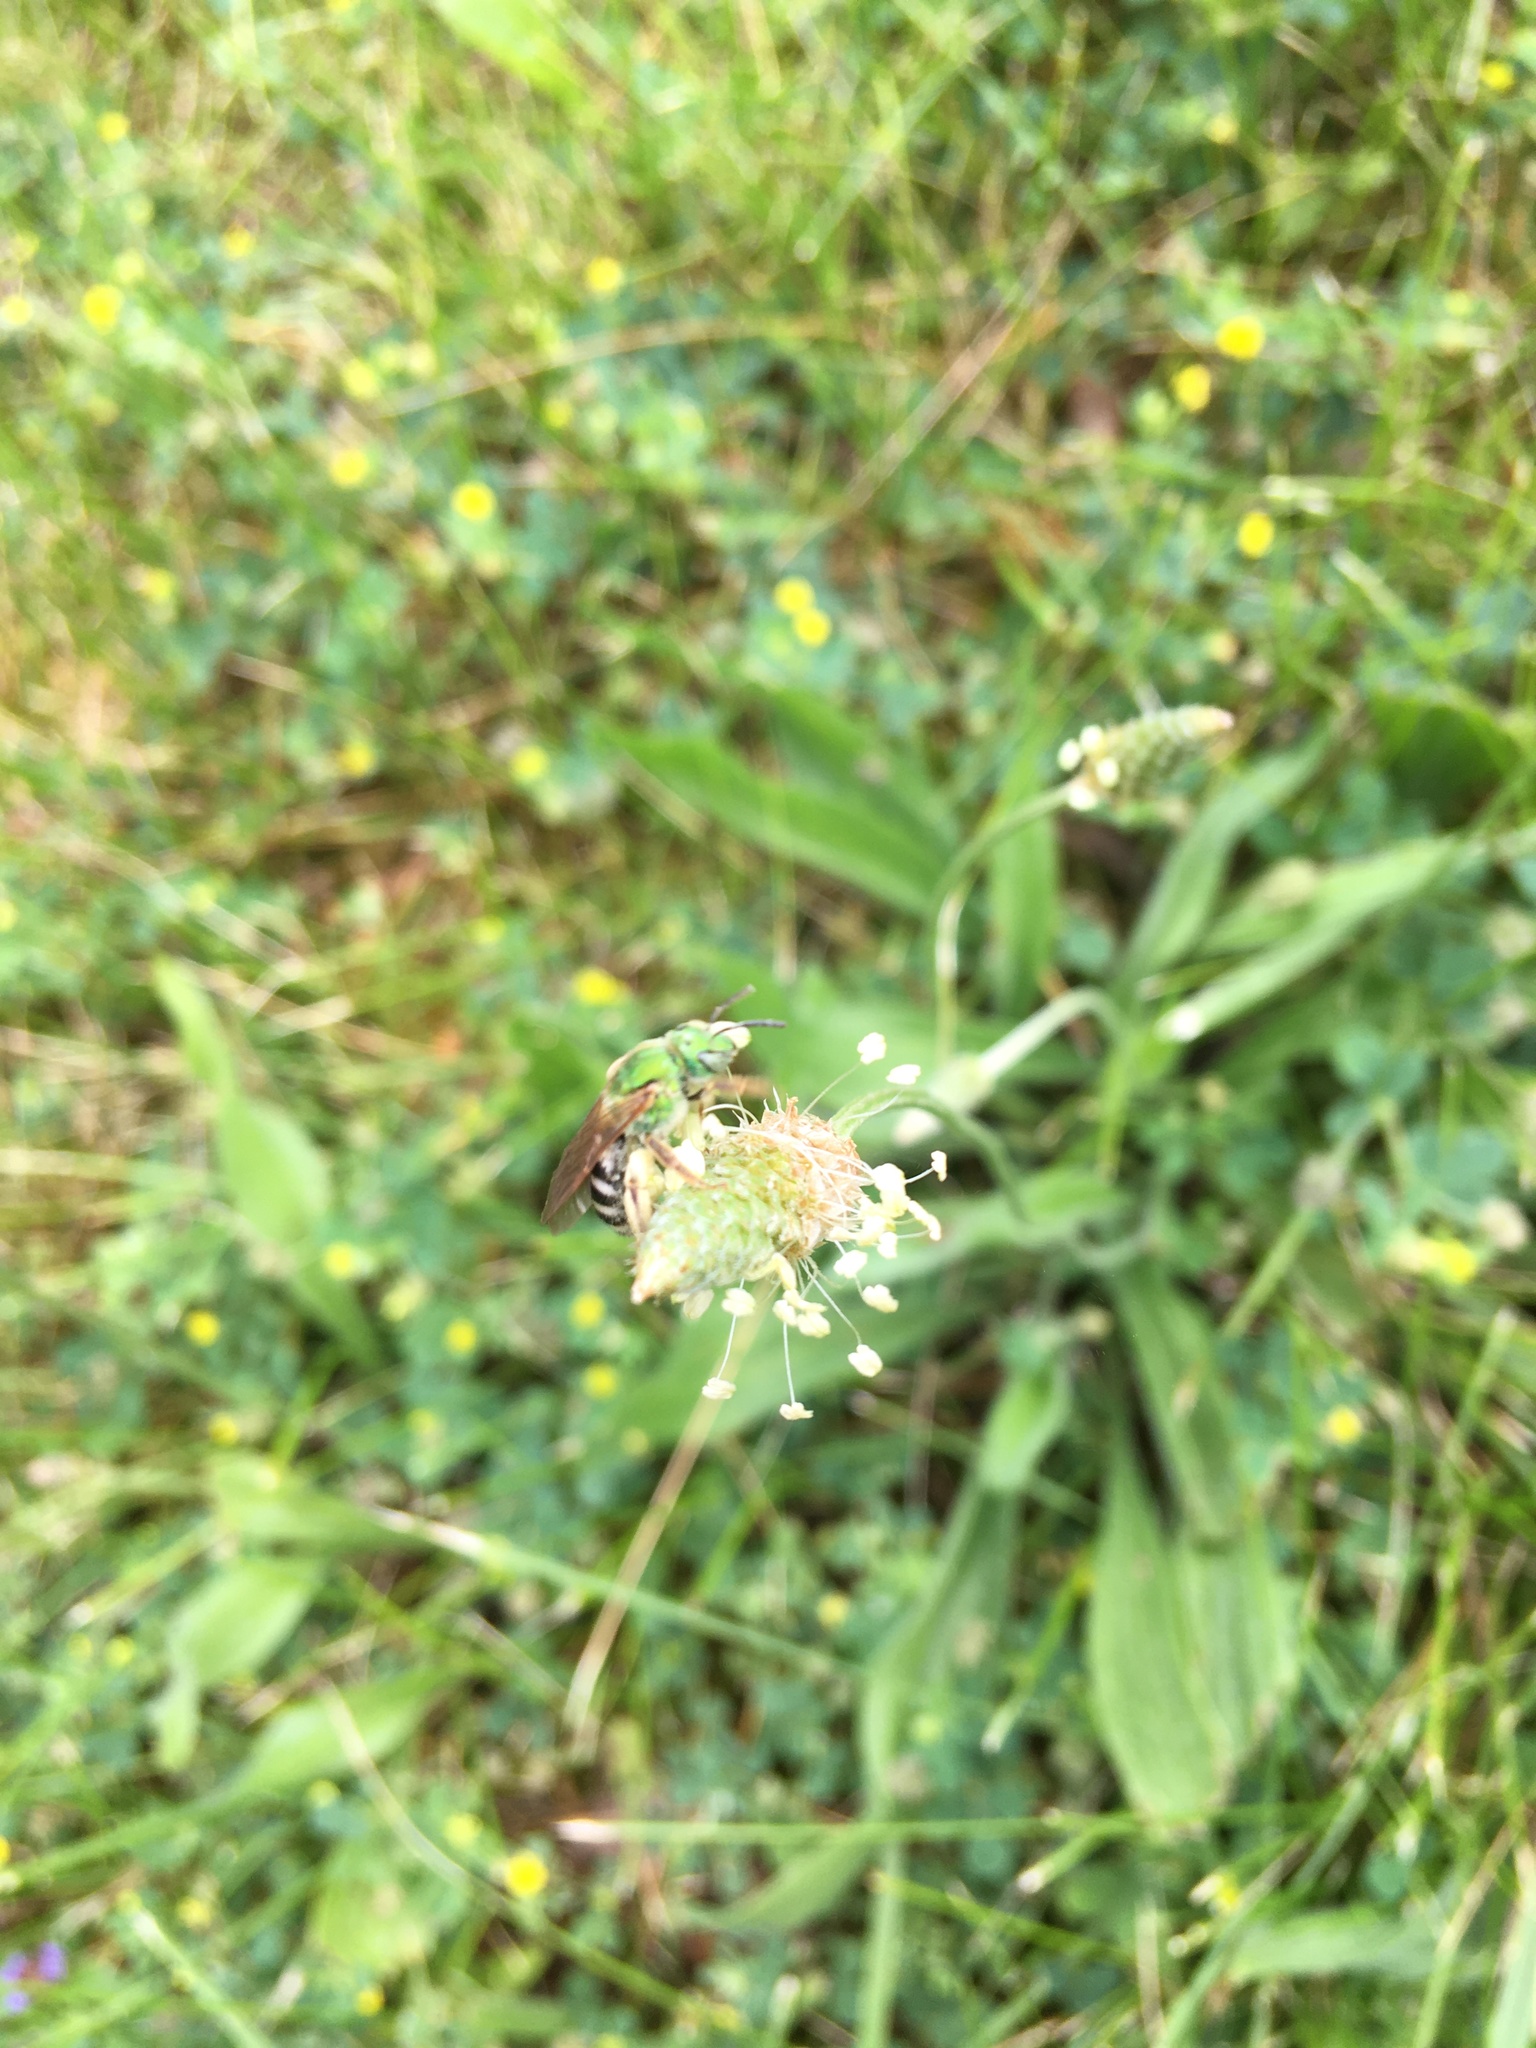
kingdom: Animalia
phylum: Arthropoda
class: Insecta
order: Hymenoptera
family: Halictidae
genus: Agapostemon
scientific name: Agapostemon virescens
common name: Bicolored striped sweat bee
